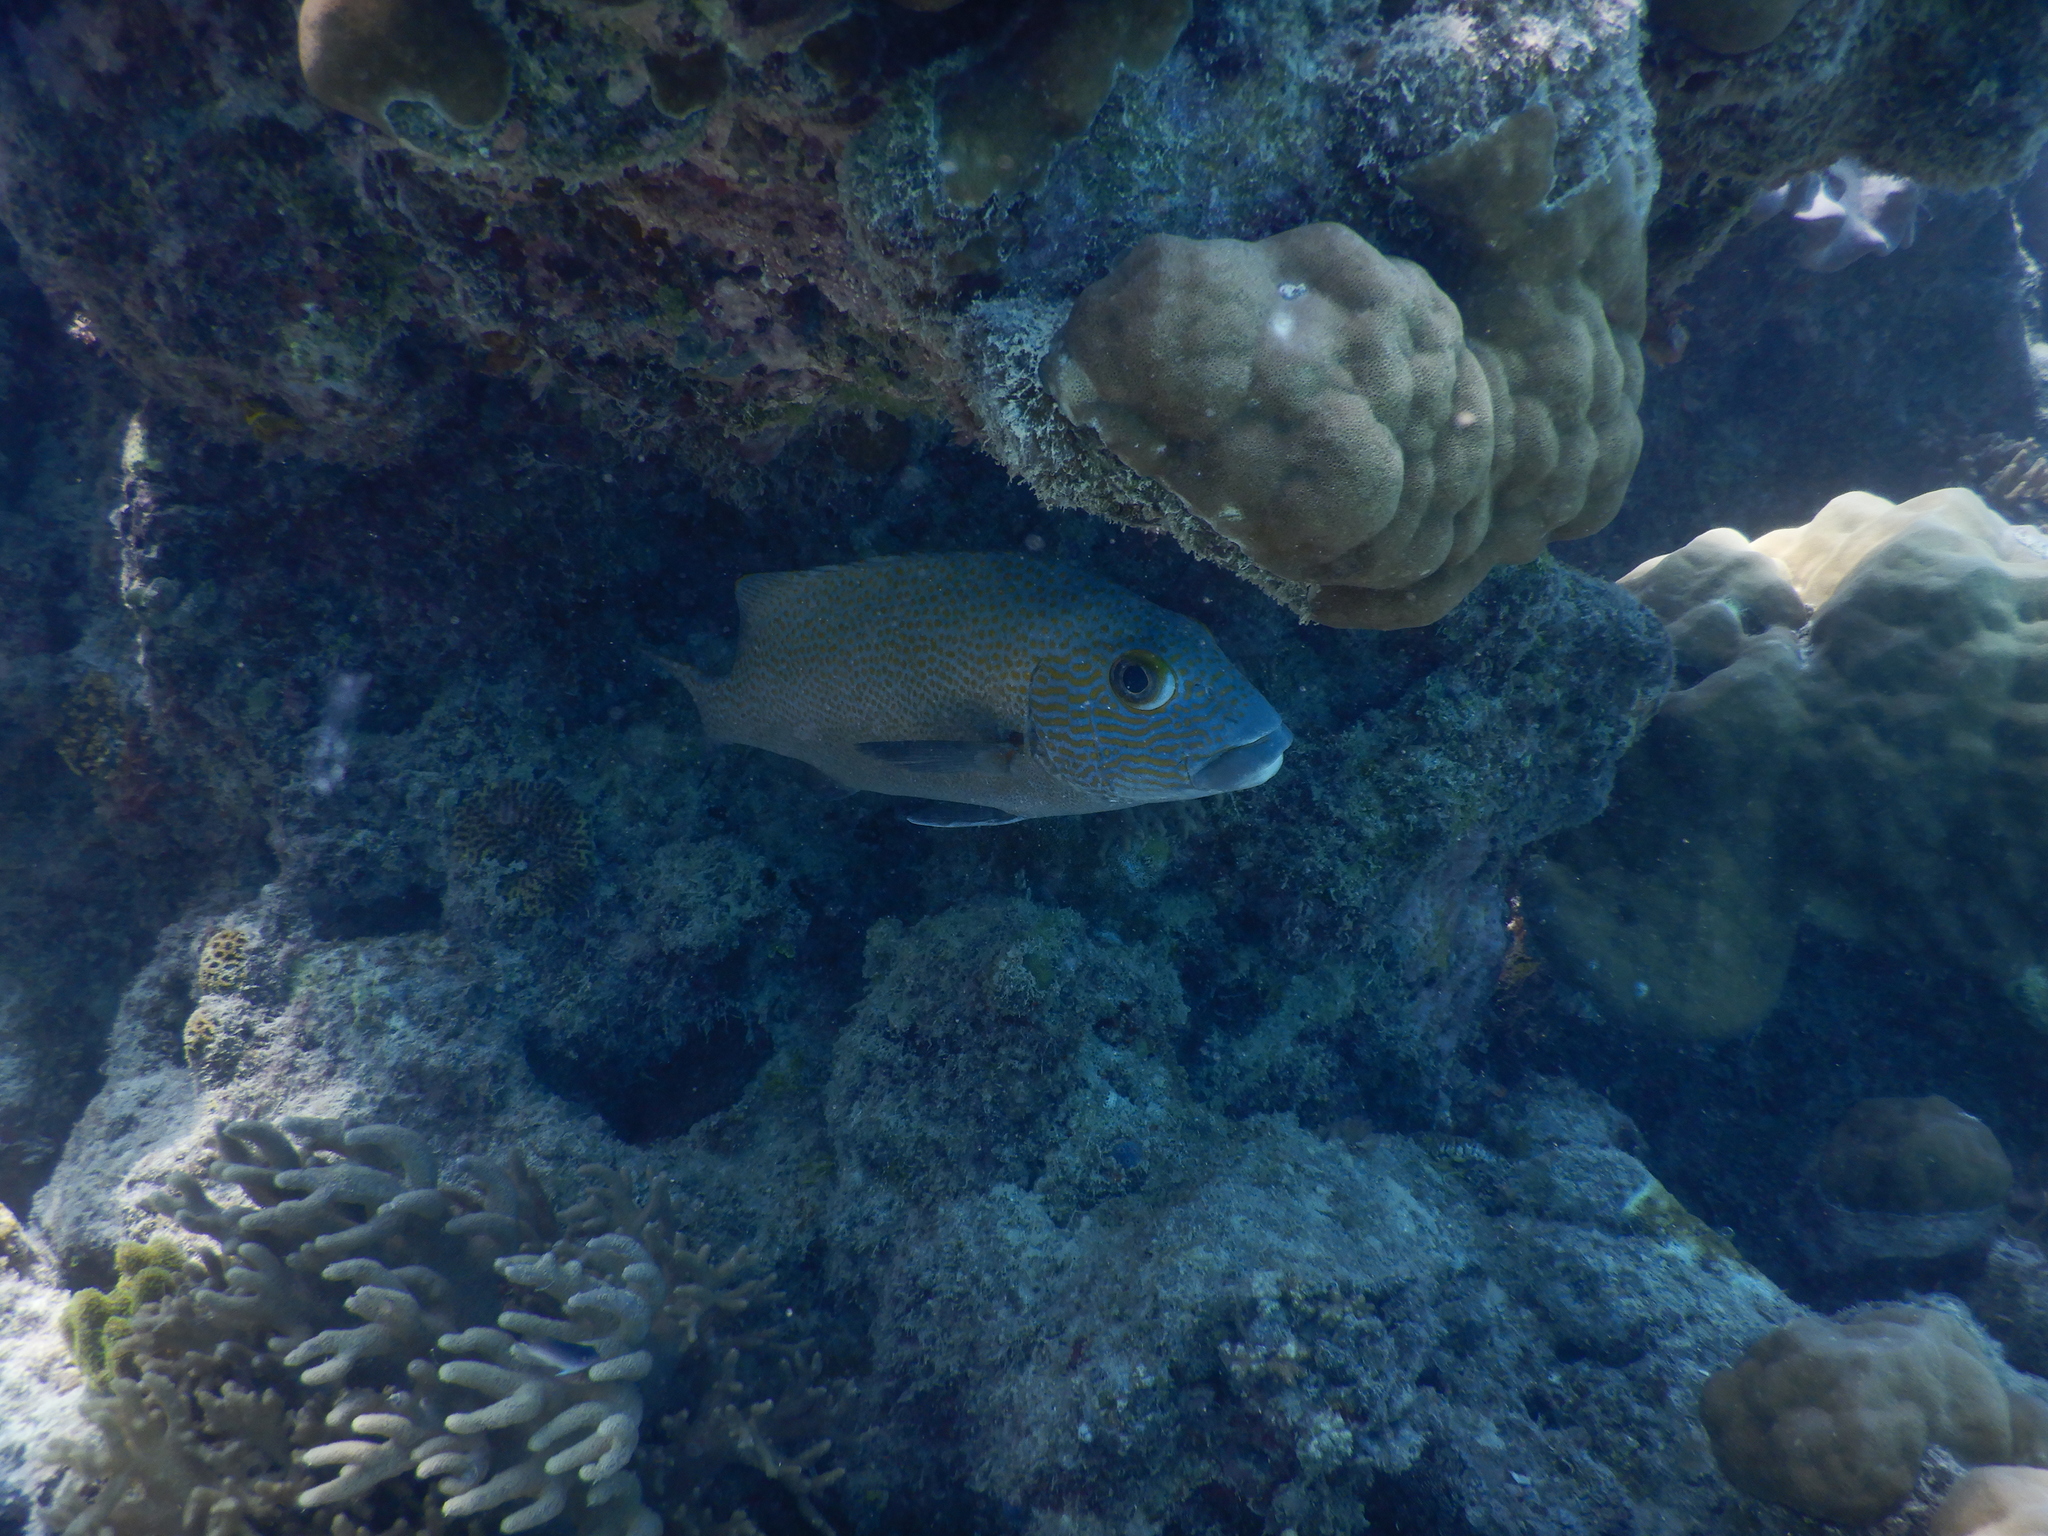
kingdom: Animalia
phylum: Chordata
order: Perciformes
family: Haemulidae
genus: Plectorhinchus
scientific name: Plectorhinchus flavomaculatus
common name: Netted sweetlips
